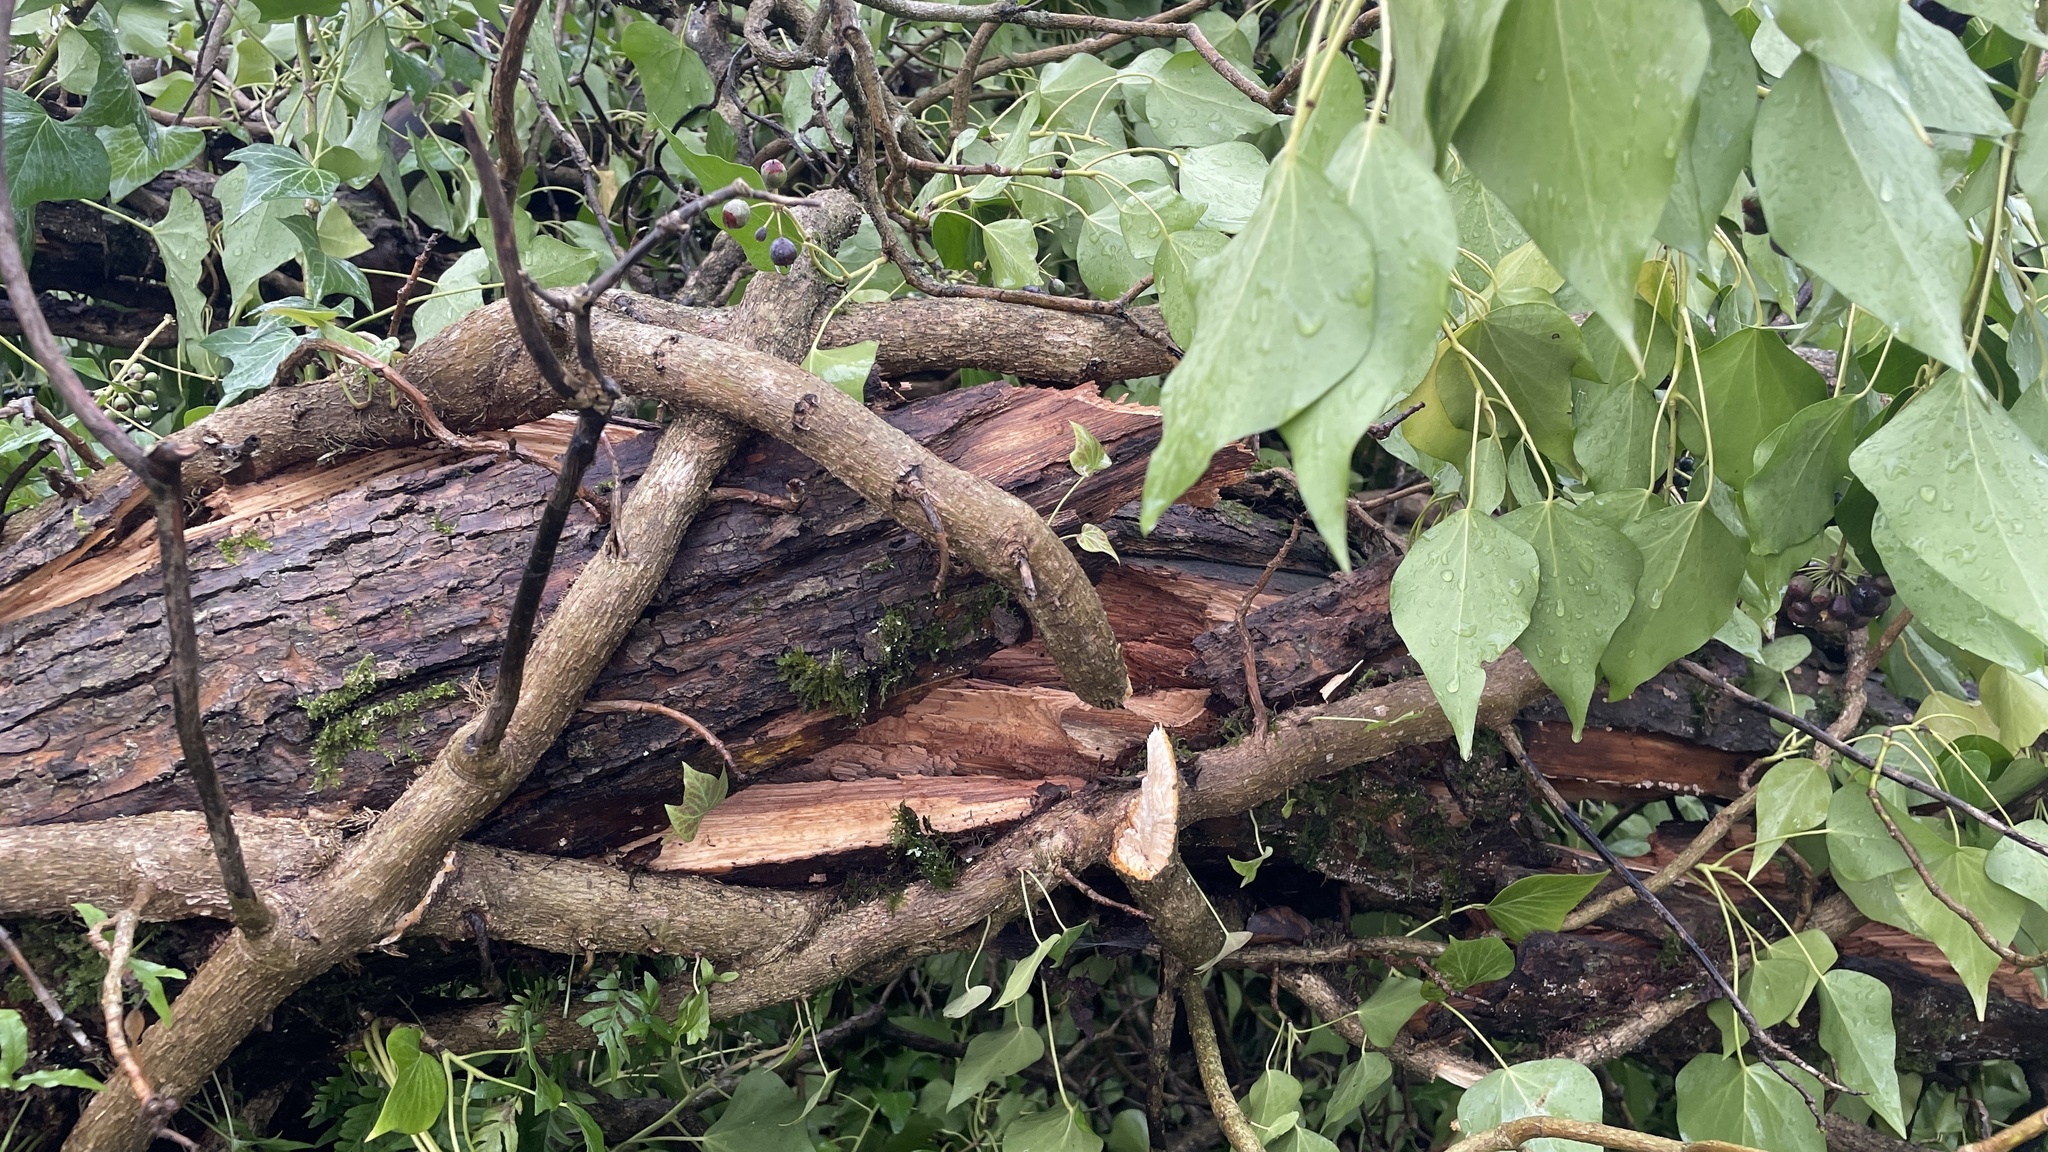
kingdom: Plantae
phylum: Tracheophyta
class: Magnoliopsida
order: Apiales
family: Araliaceae
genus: Hedera
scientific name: Hedera
